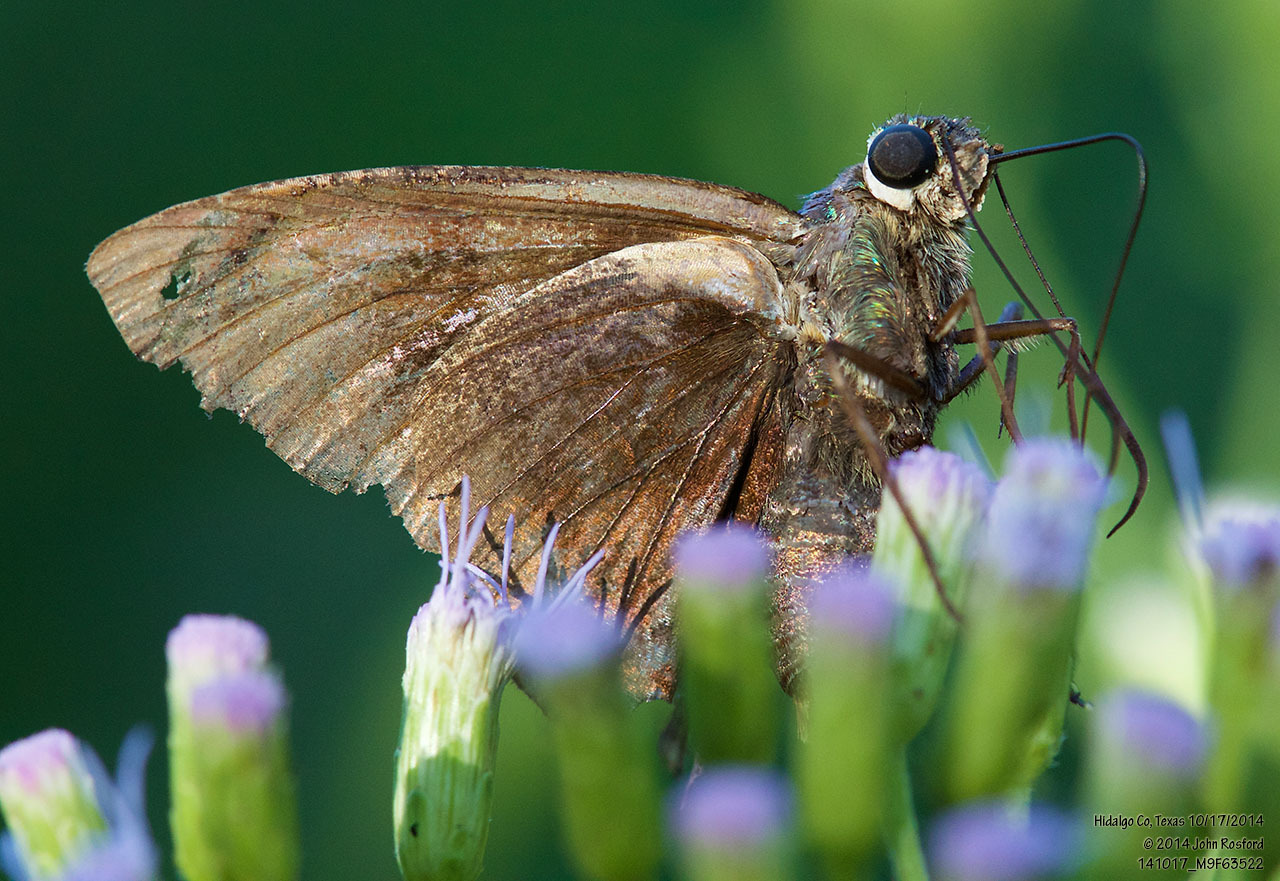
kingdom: Animalia
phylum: Arthropoda
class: Insecta
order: Lepidoptera
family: Hesperiidae
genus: Astraptes
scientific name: Astraptes alector
